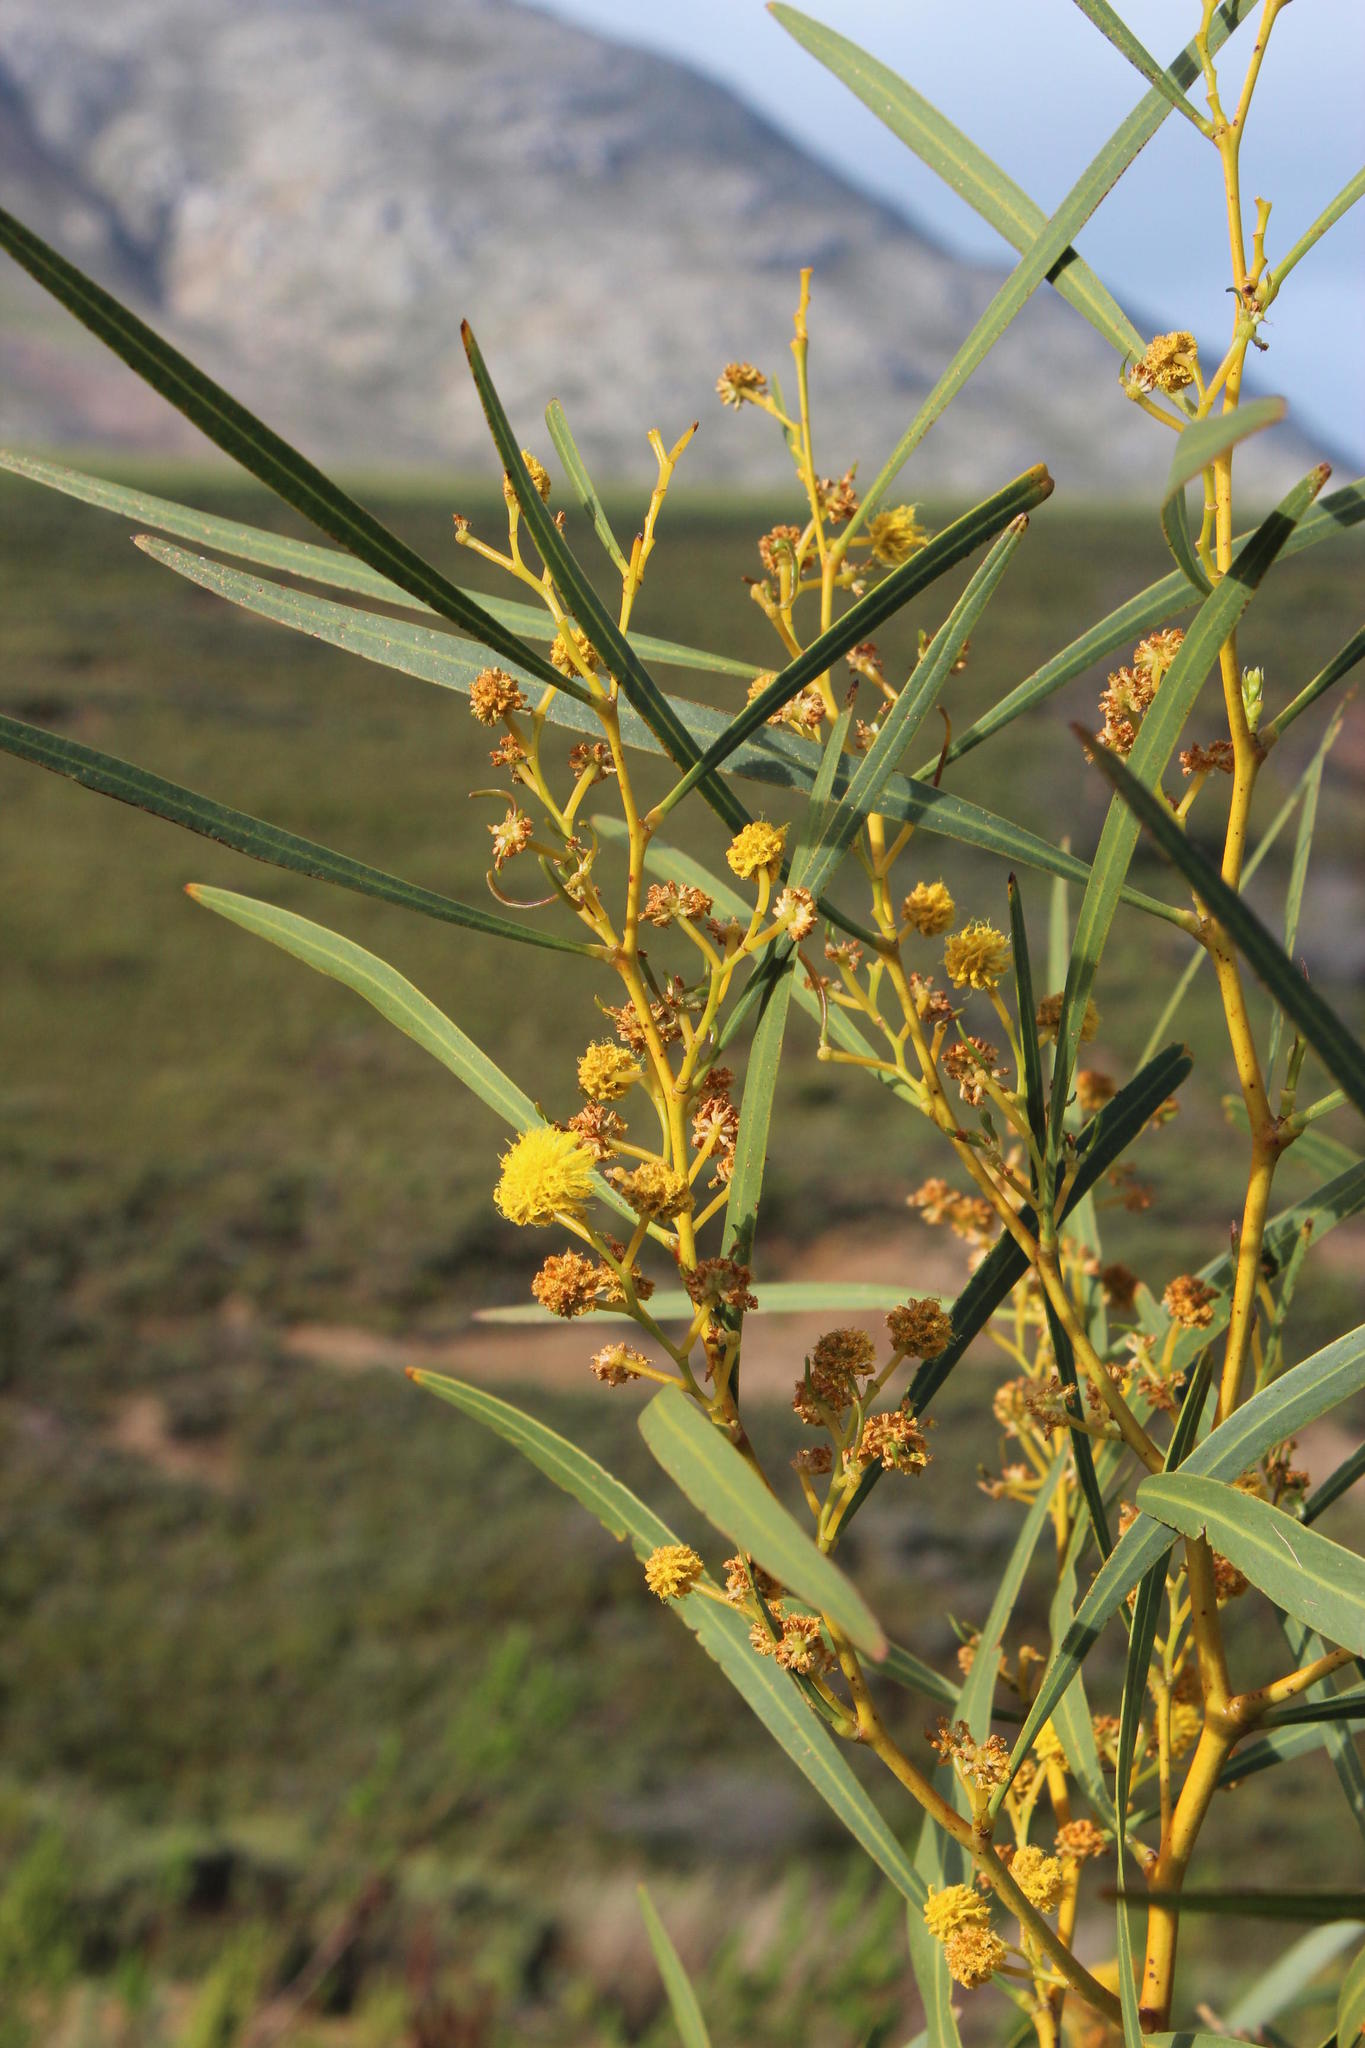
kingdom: Plantae
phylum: Tracheophyta
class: Magnoliopsida
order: Fabales
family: Fabaceae
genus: Acacia
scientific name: Acacia saligna
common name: Orange wattle
